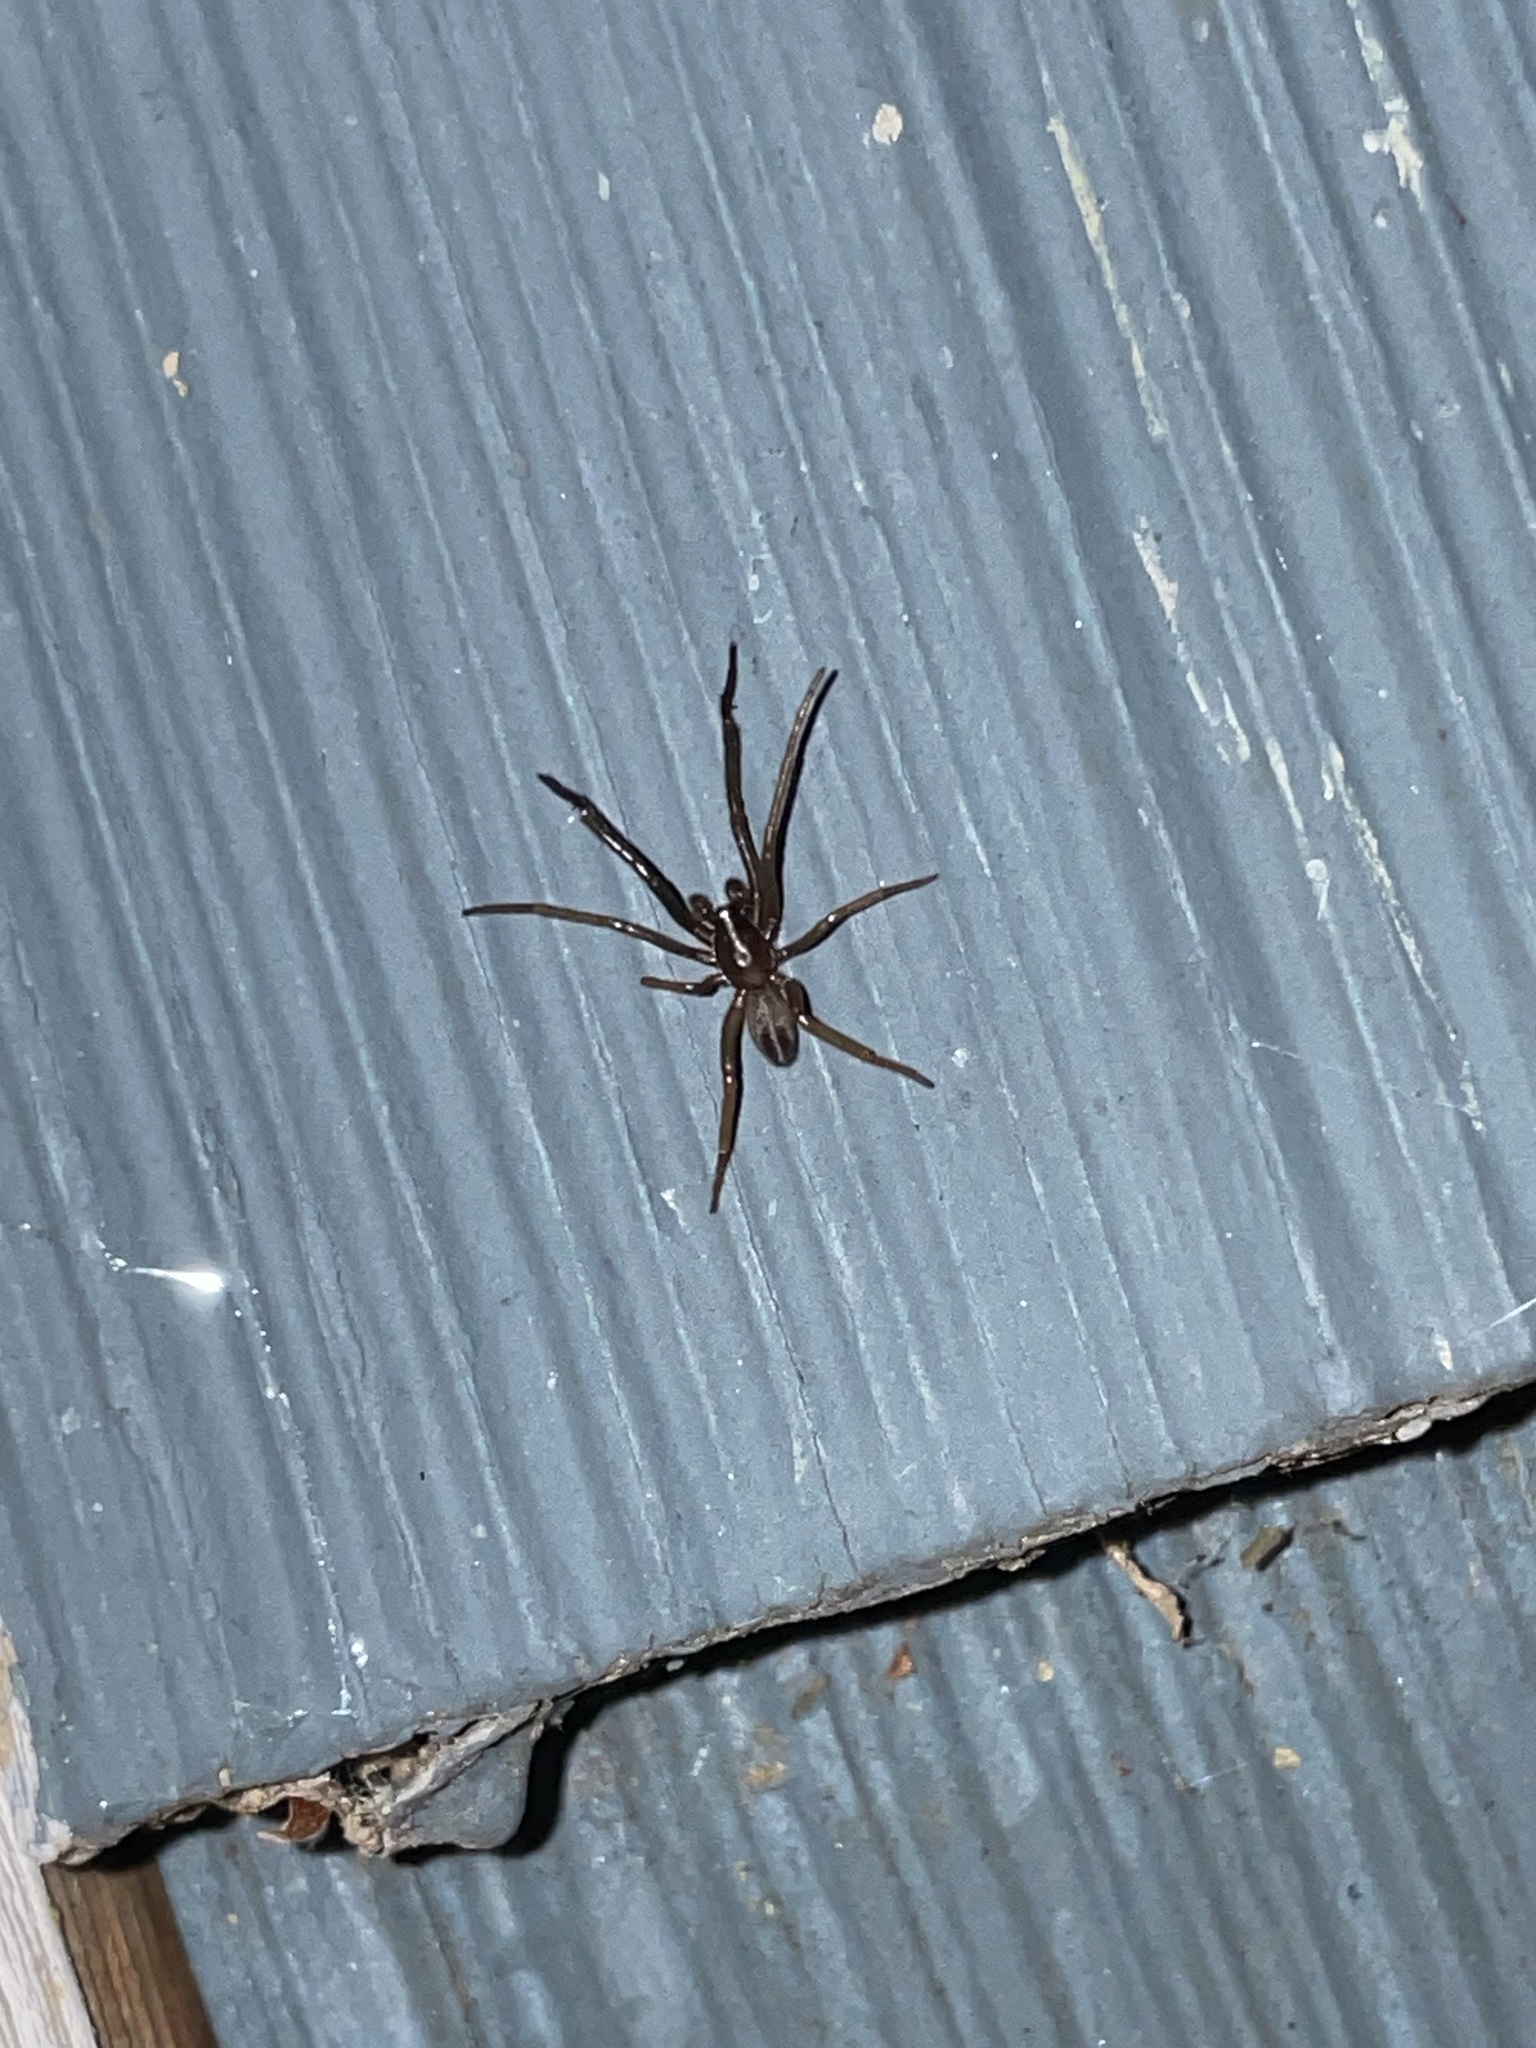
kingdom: Animalia
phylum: Arthropoda
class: Arachnida
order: Araneae
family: Segestriidae
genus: Ariadna
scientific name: Ariadna bicolor
